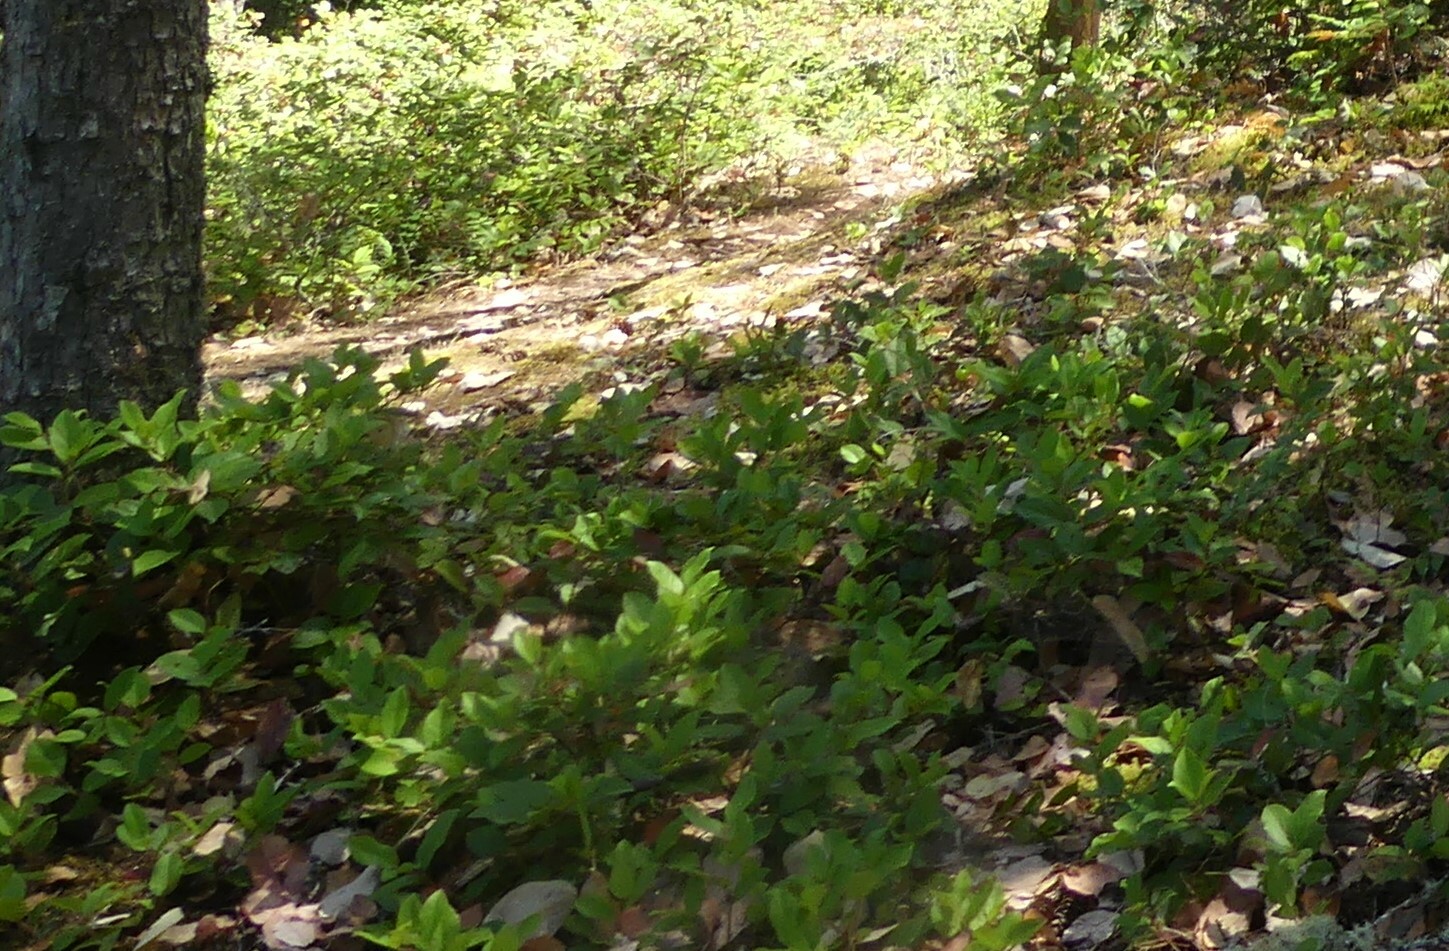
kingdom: Plantae
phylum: Tracheophyta
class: Magnoliopsida
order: Ericales
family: Ericaceae
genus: Gaultheria
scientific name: Gaultheria shallon
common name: Shallon
